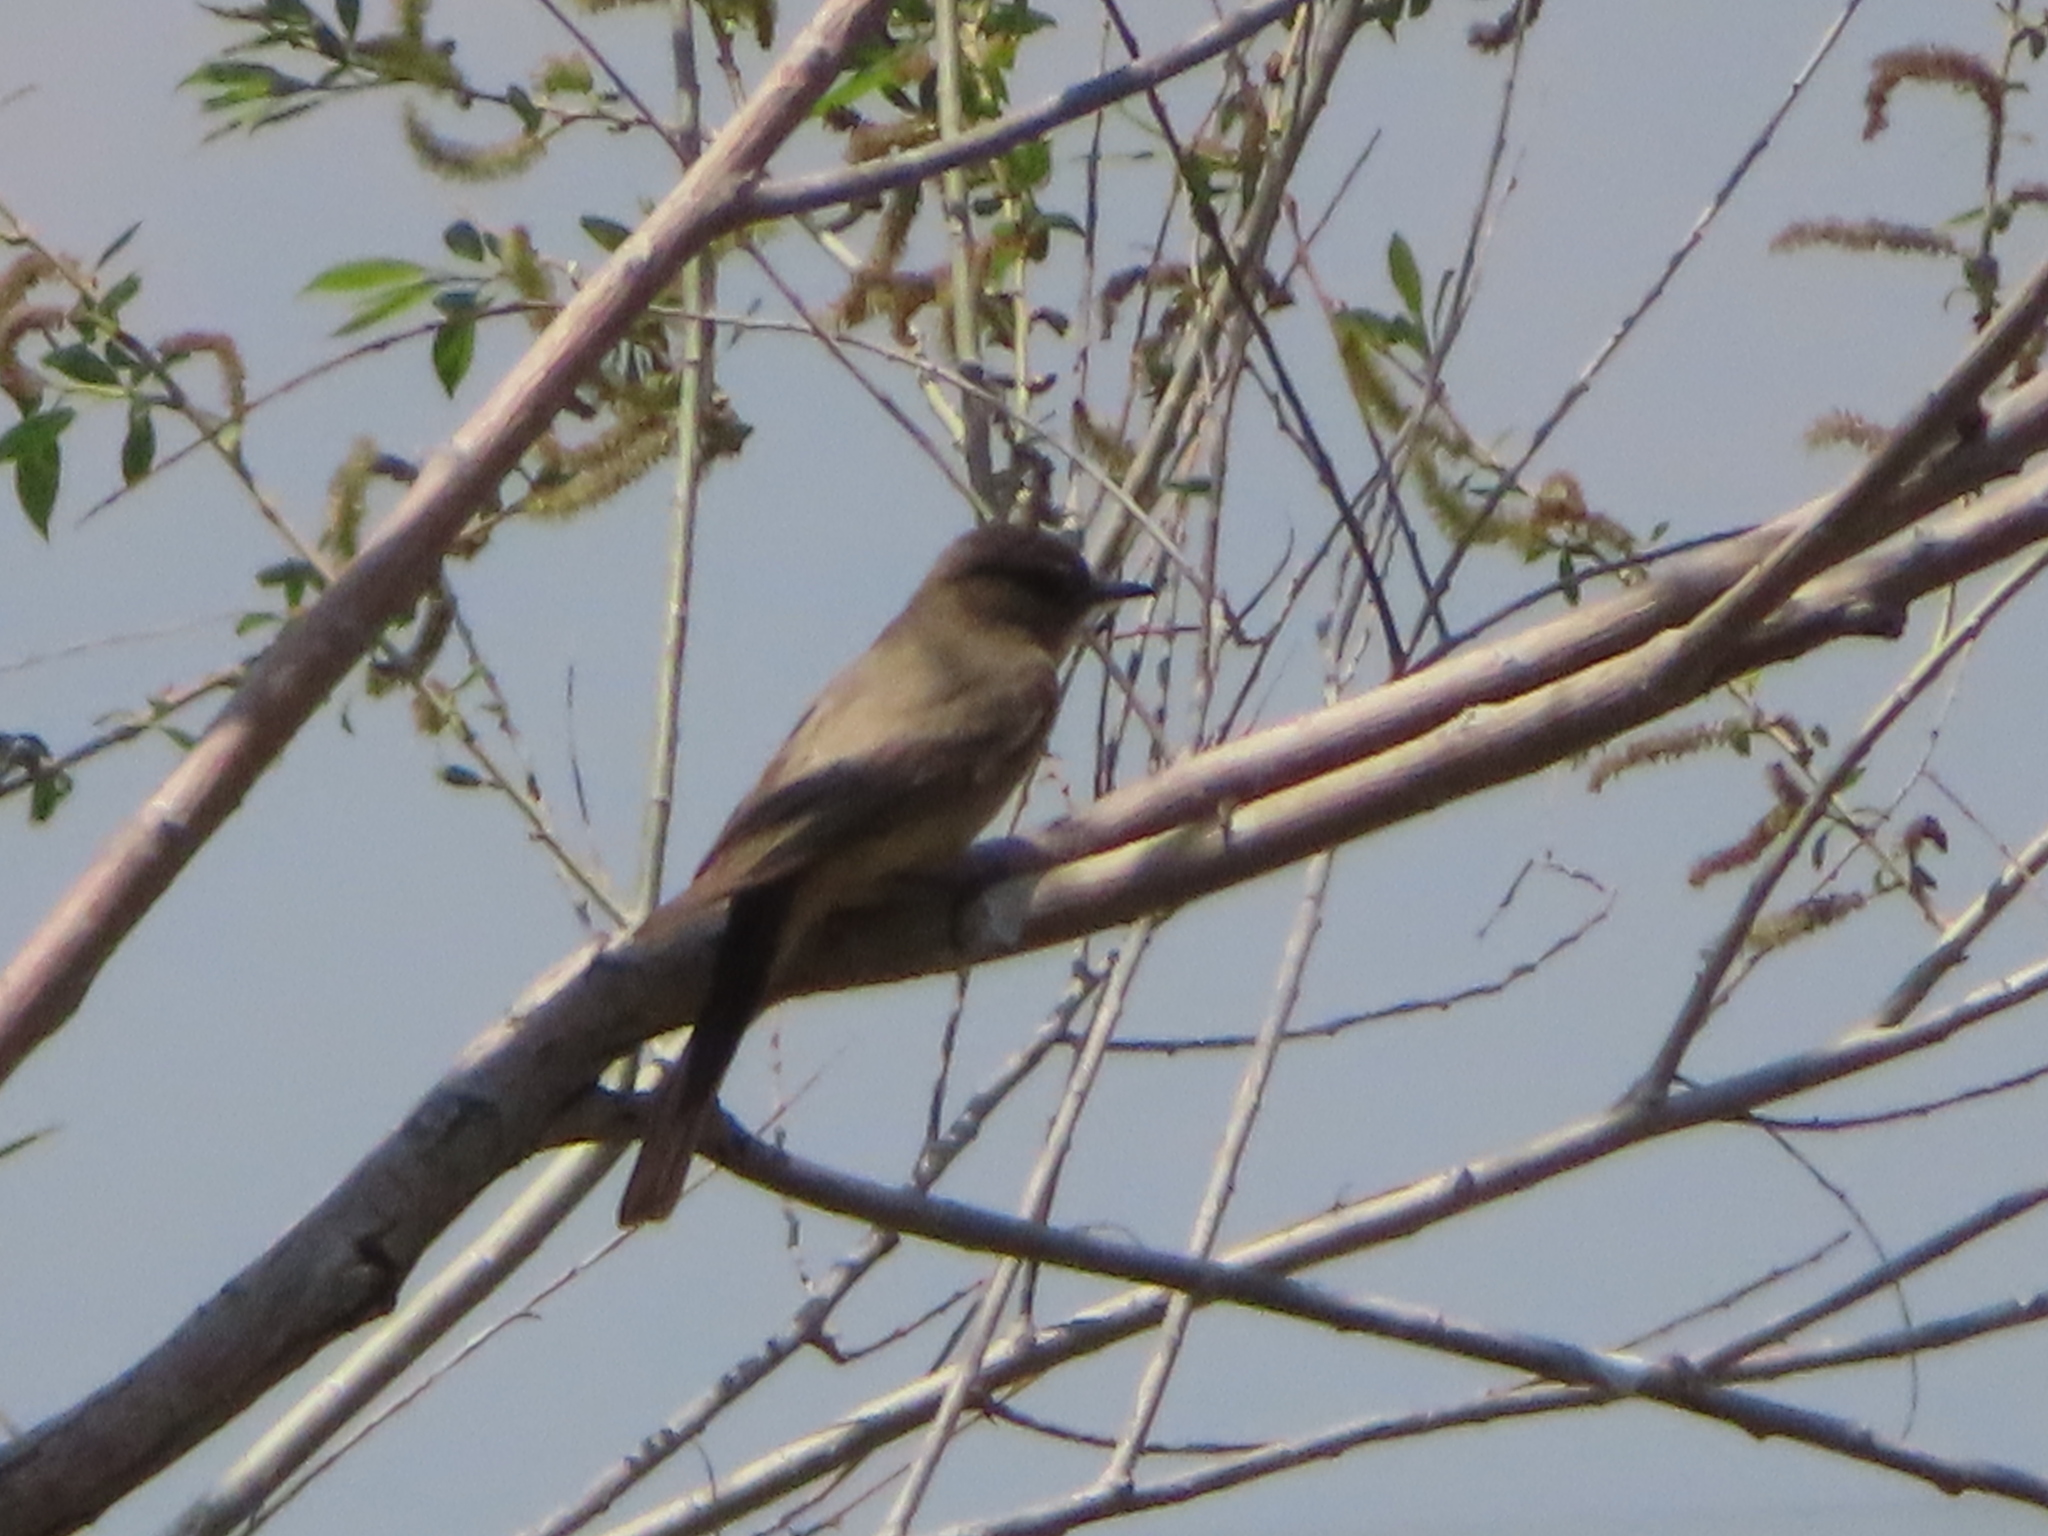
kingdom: Animalia
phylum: Chordata
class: Aves
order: Passeriformes
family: Tyrannidae
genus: Sayornis
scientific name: Sayornis saya
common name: Say's phoebe
